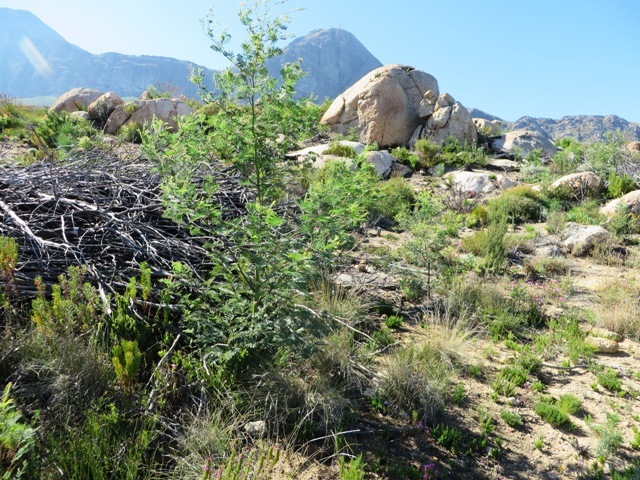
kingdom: Plantae
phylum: Tracheophyta
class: Magnoliopsida
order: Fabales
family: Fabaceae
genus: Acacia
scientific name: Acacia mearnsii
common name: Black wattle
